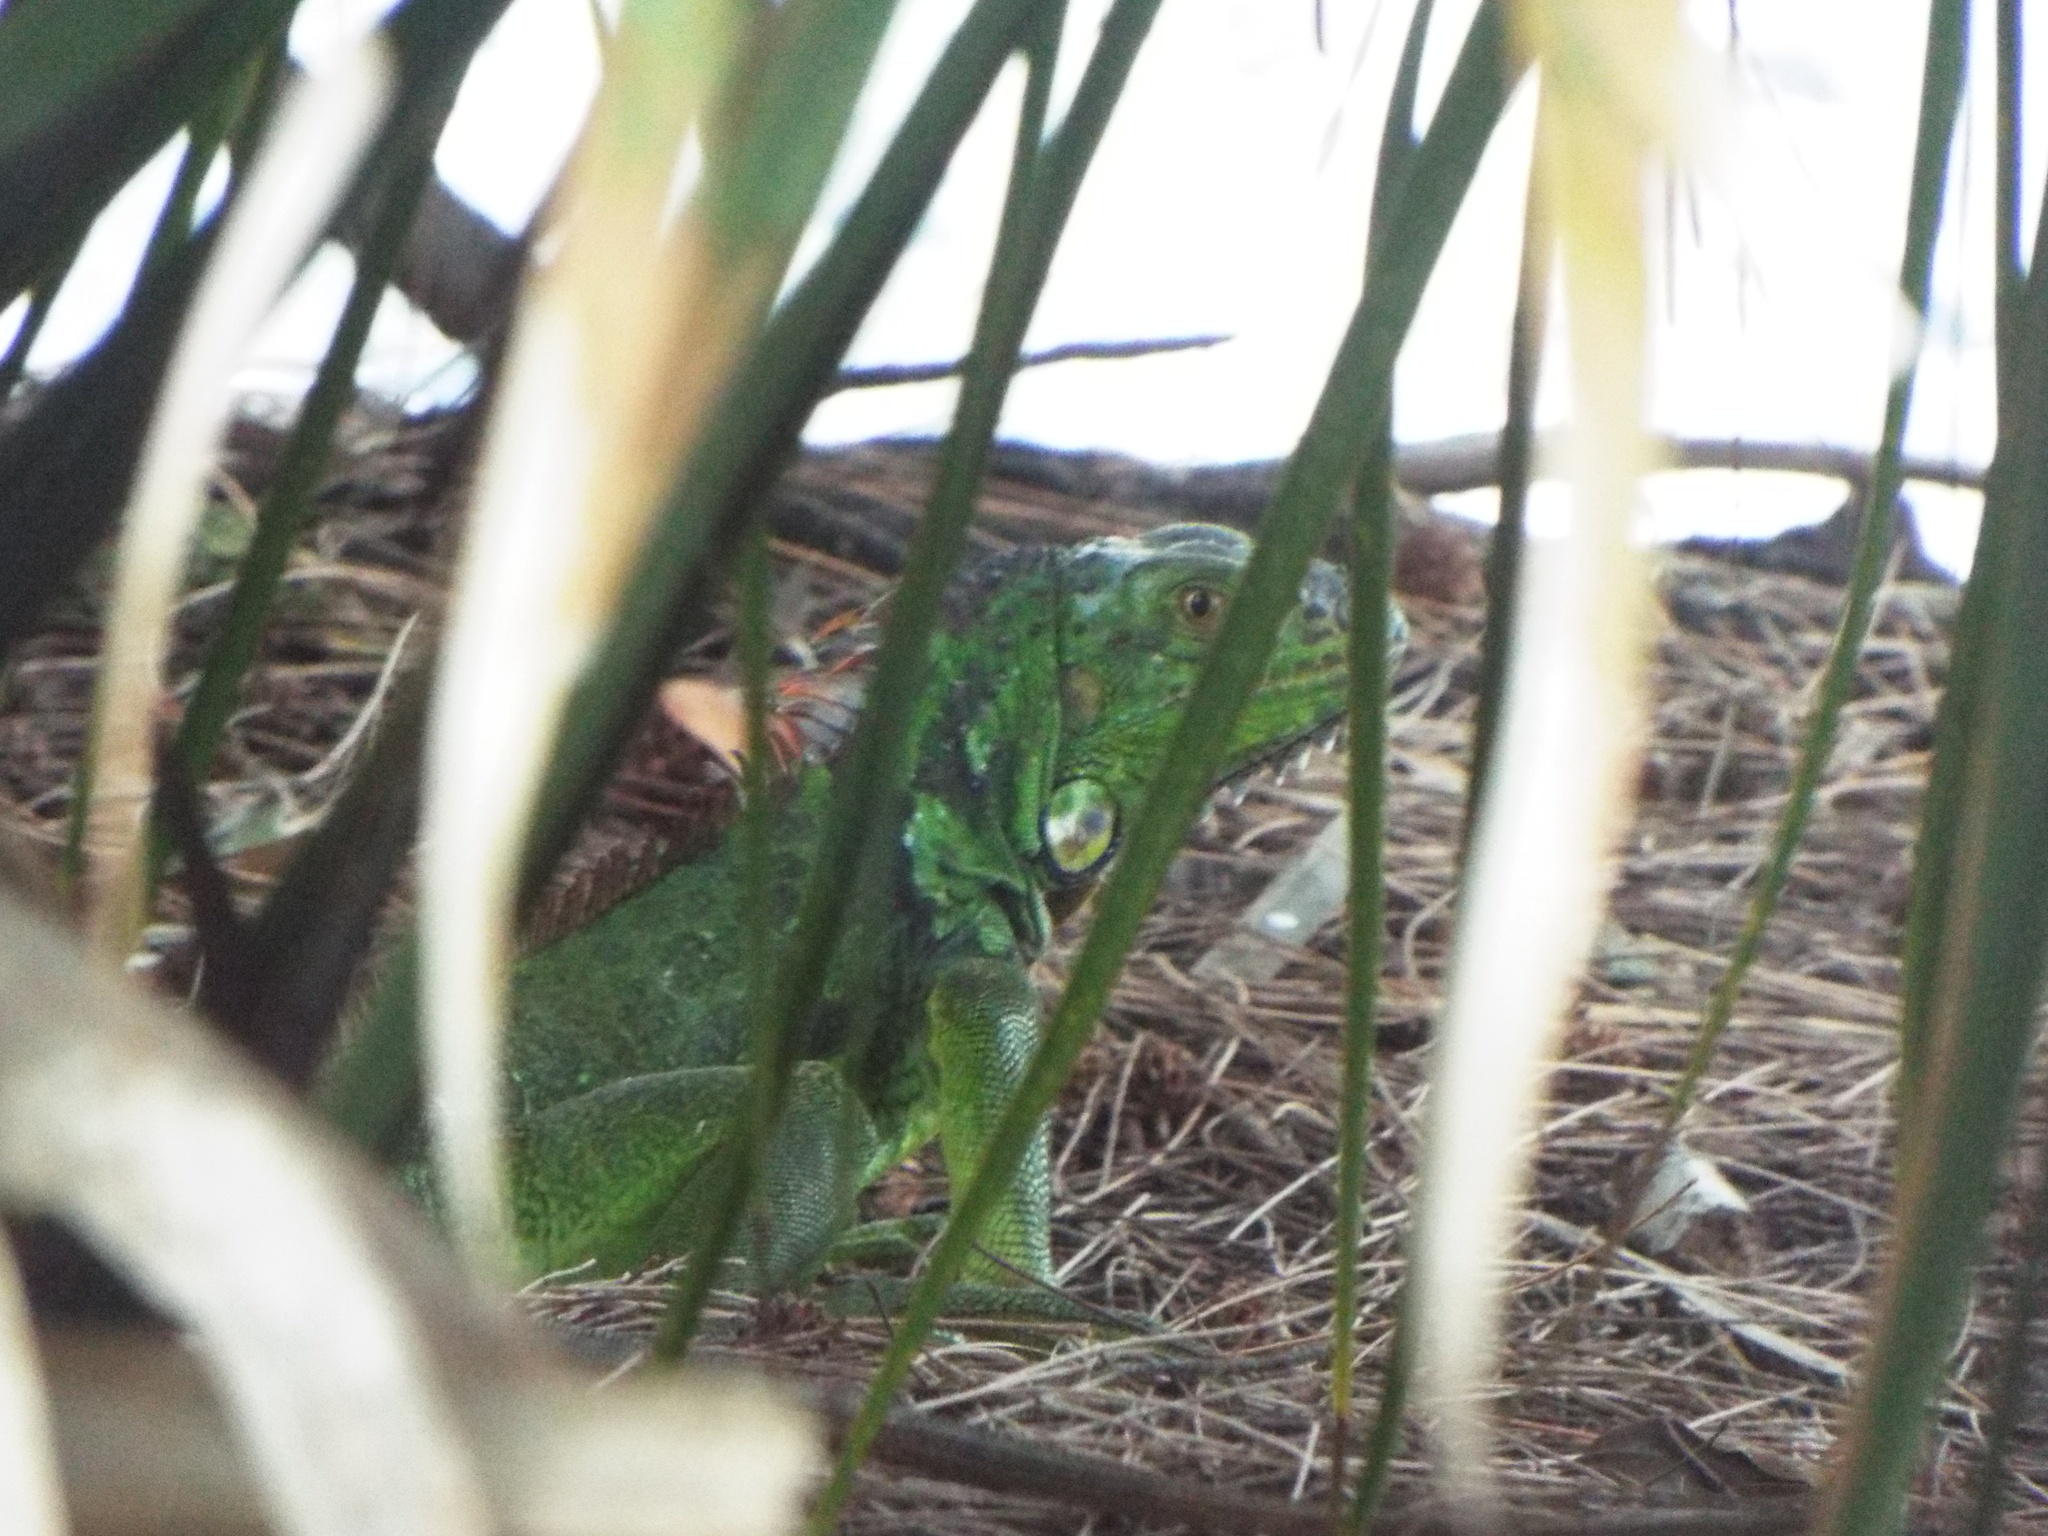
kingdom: Animalia
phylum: Chordata
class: Squamata
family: Iguanidae
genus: Iguana
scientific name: Iguana iguana
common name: Green iguana
